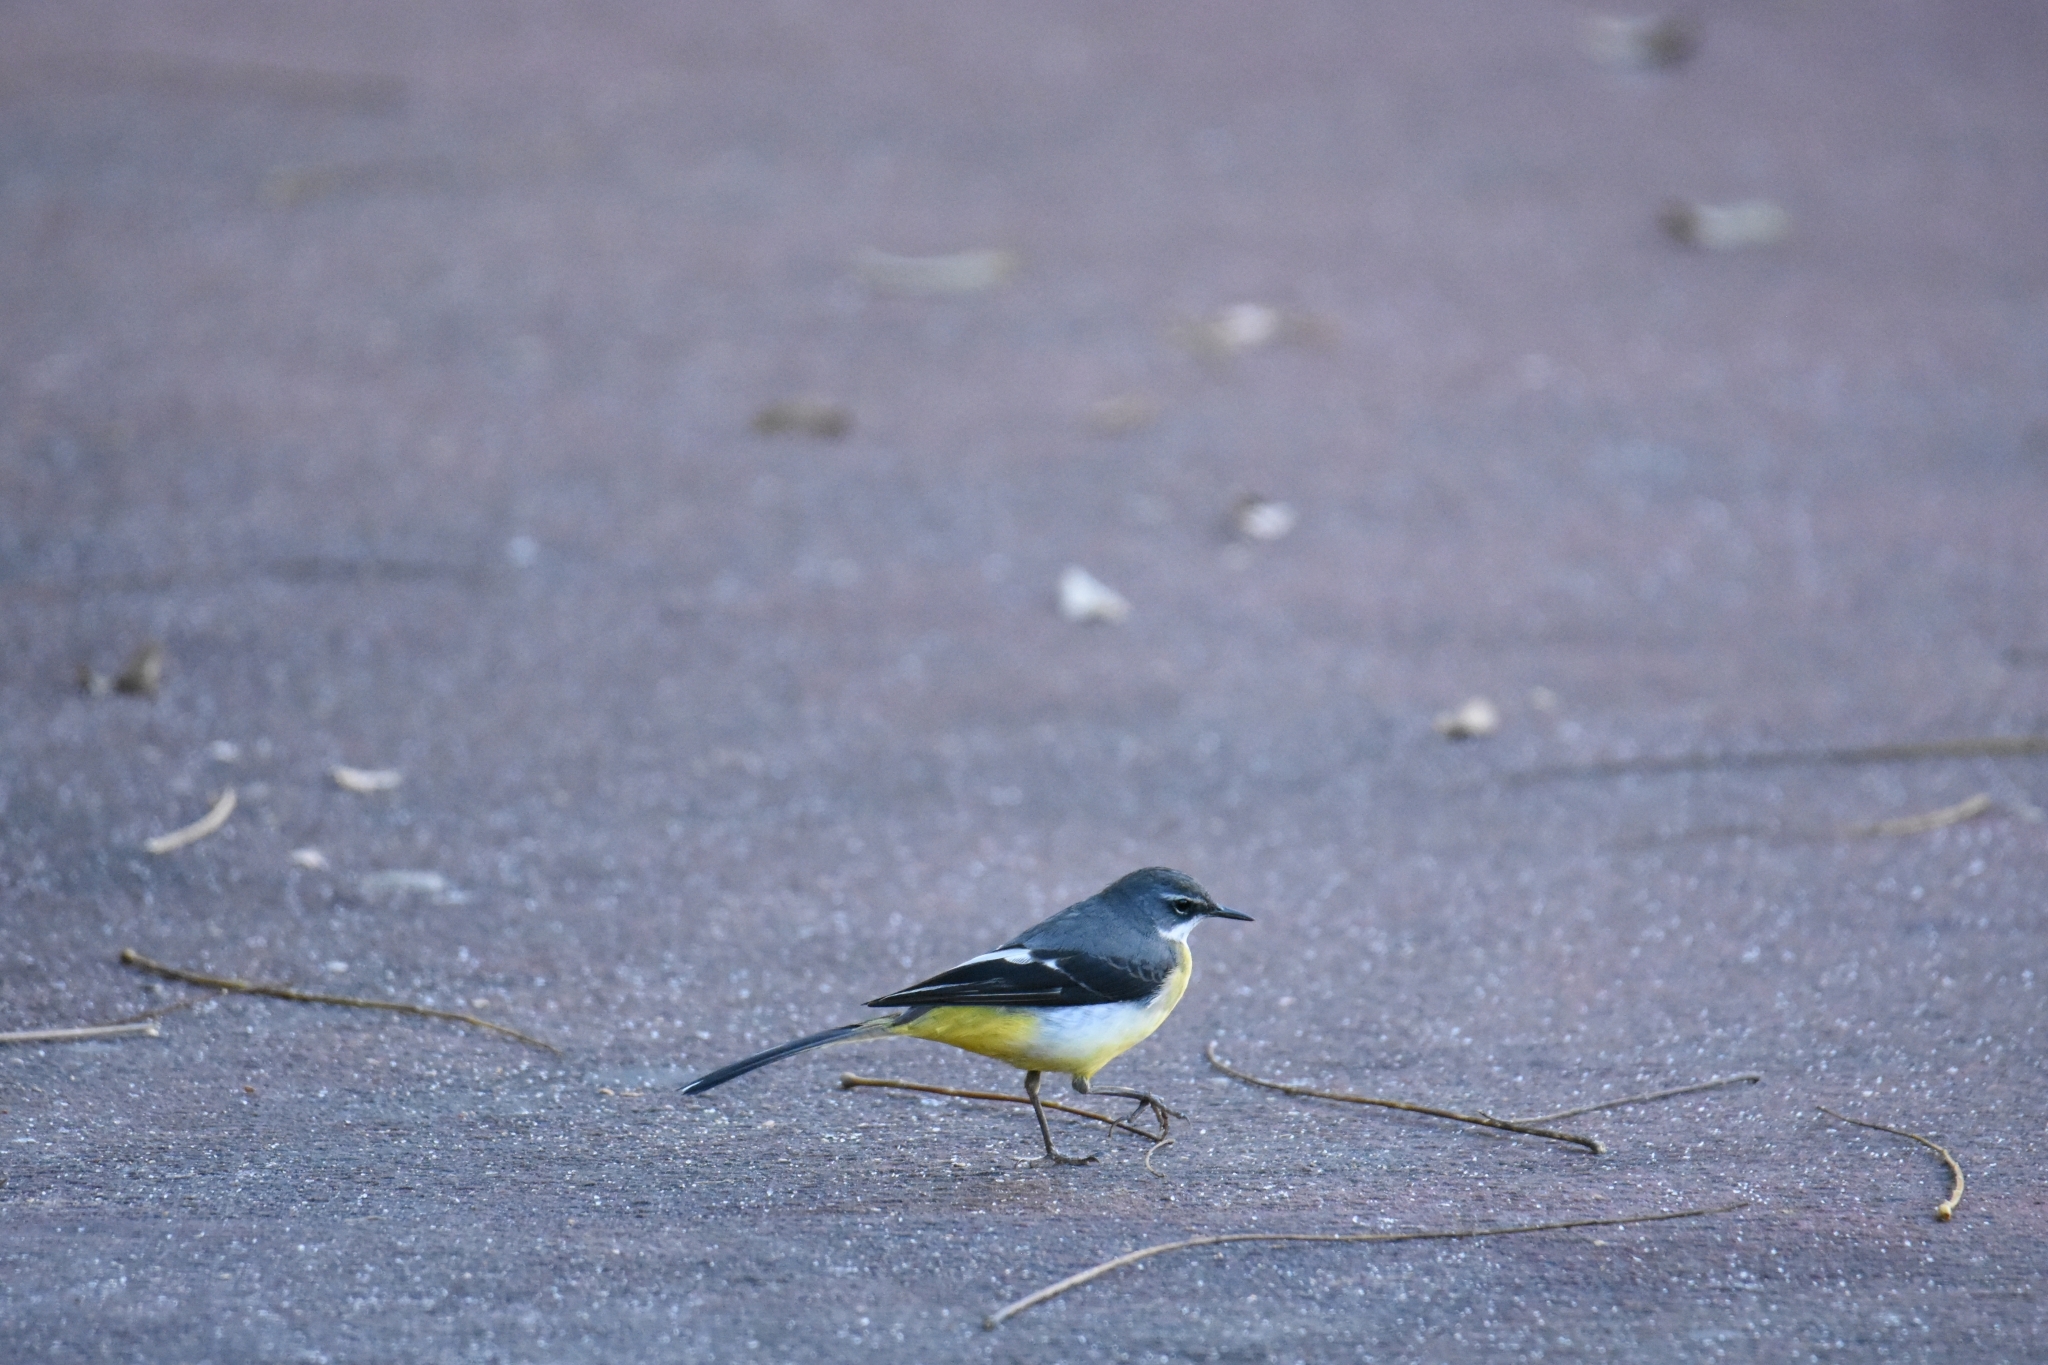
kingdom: Animalia
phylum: Chordata
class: Aves
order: Passeriformes
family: Motacillidae
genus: Motacilla
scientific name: Motacilla cinerea
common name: Grey wagtail
